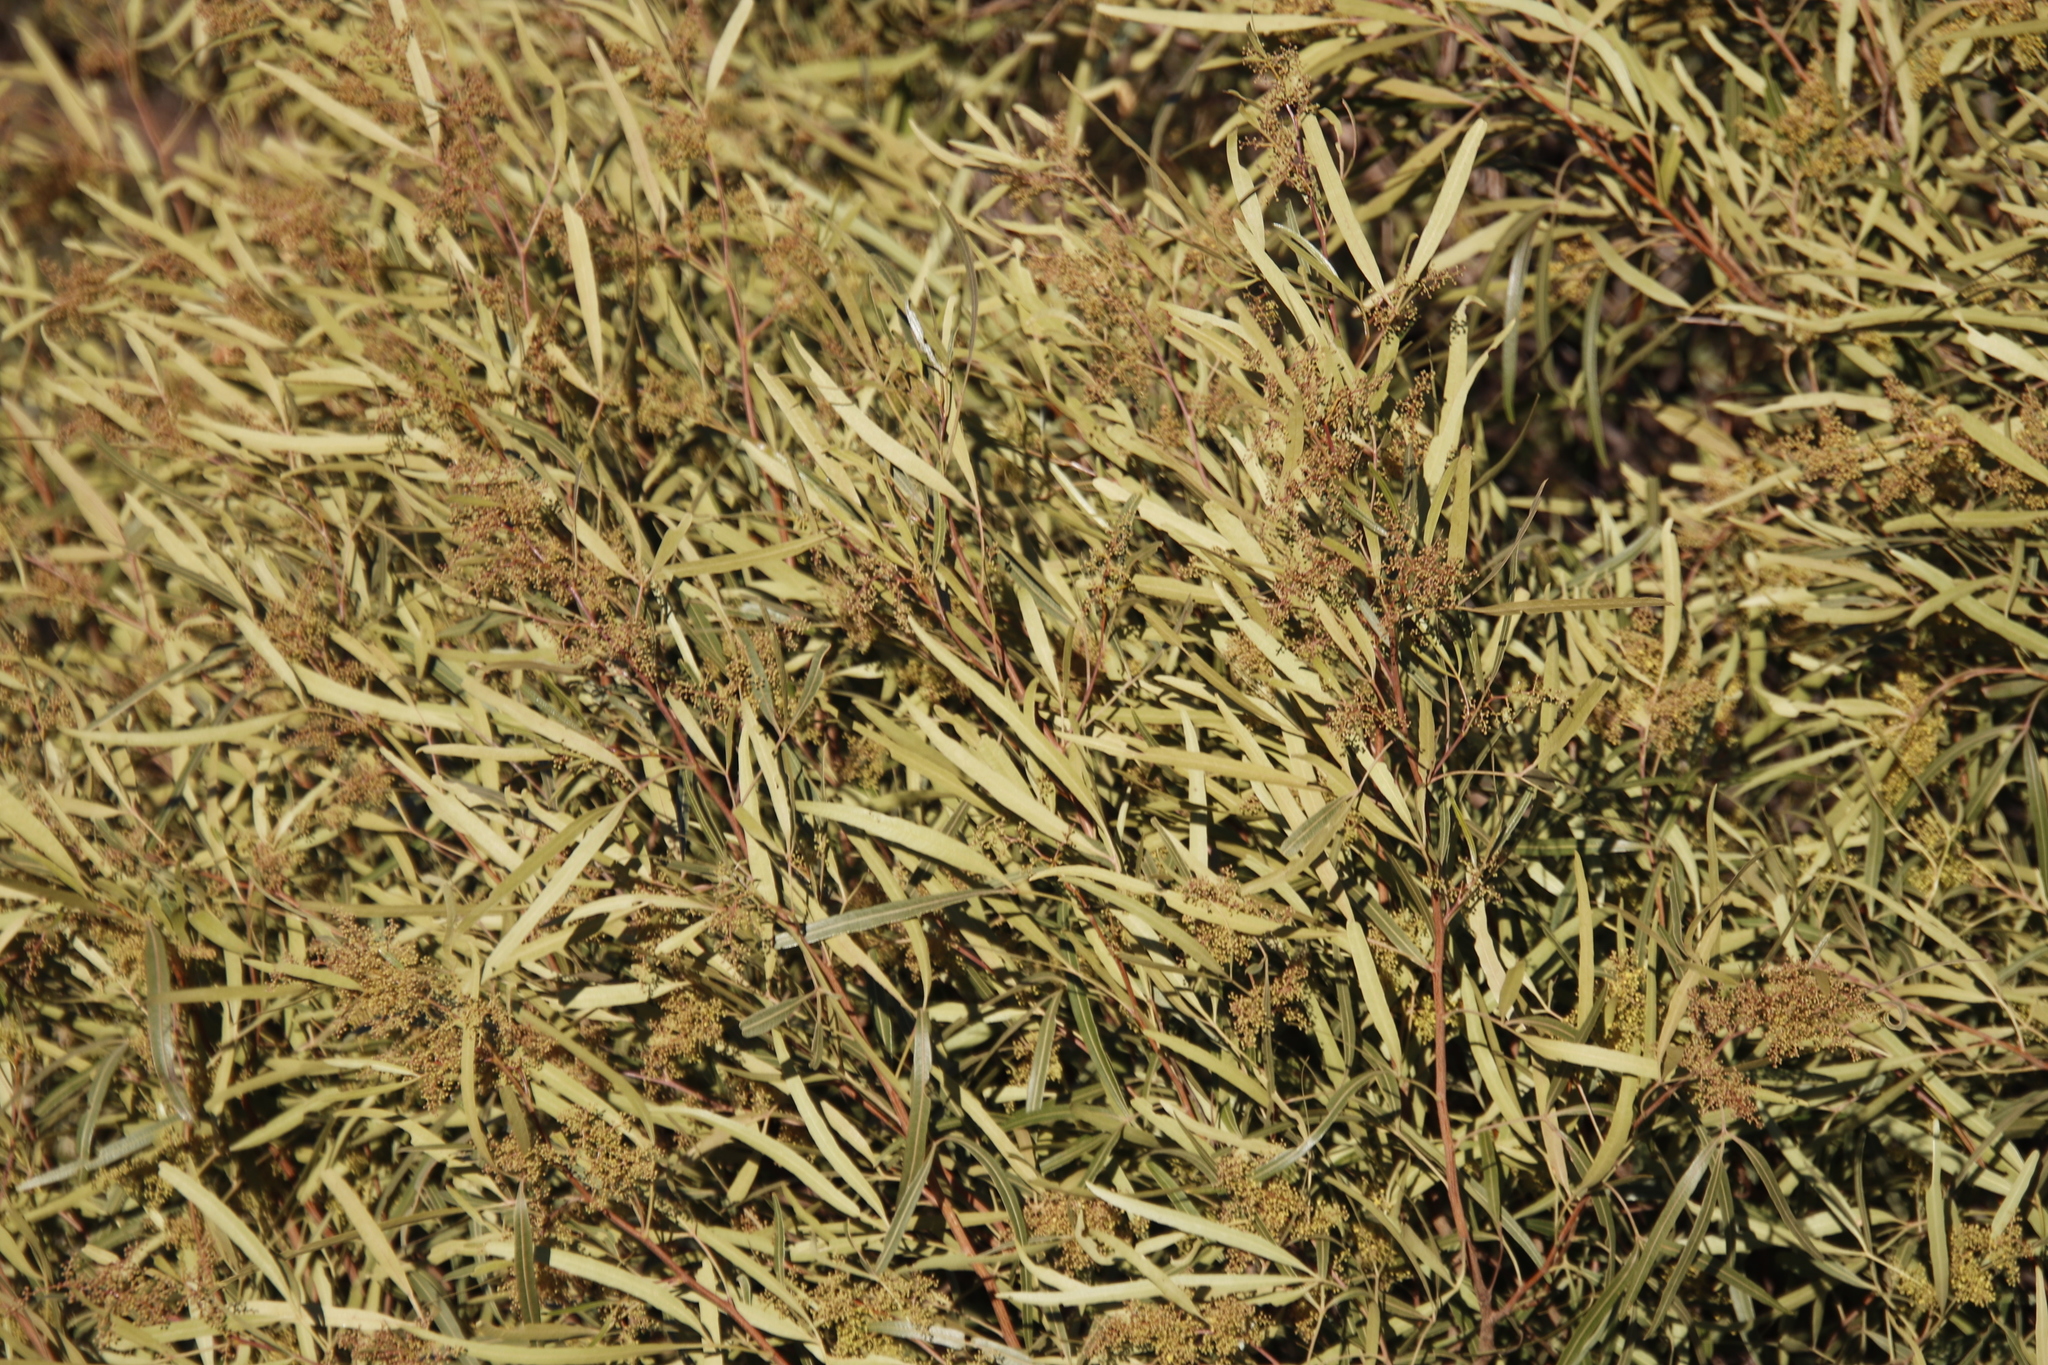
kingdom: Plantae
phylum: Tracheophyta
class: Magnoliopsida
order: Sapindales
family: Anacardiaceae
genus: Searsia
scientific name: Searsia lancea
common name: Cashew
